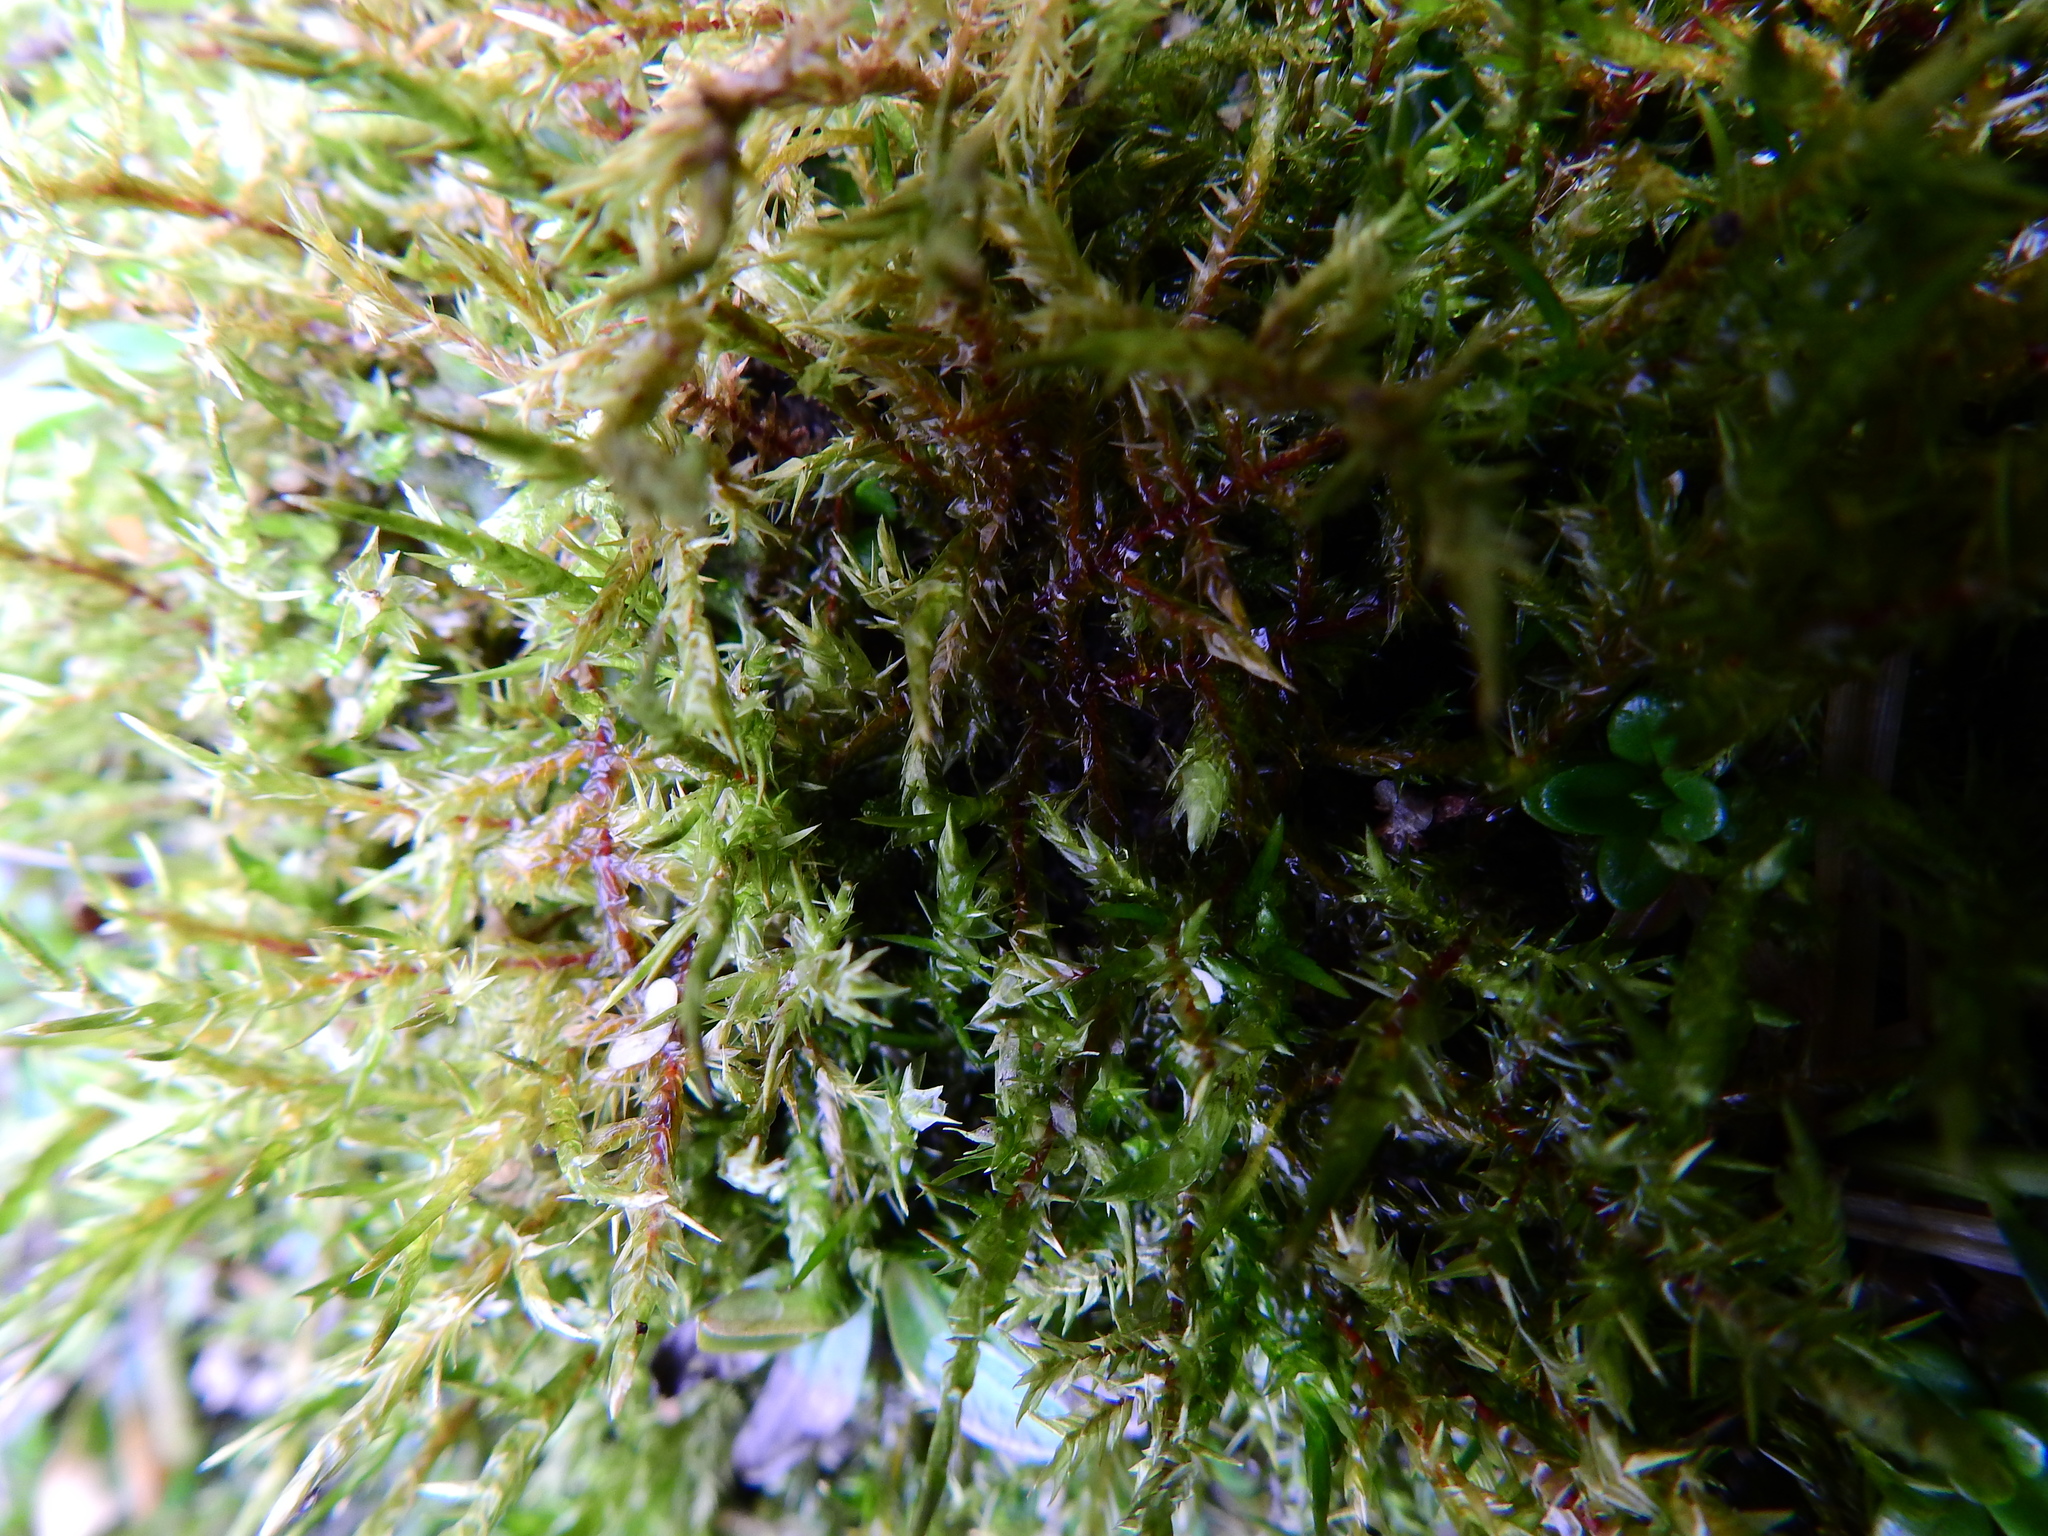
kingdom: Plantae
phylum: Bryophyta
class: Bryopsida
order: Hypnales
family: Pylaisiaceae
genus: Calliergonella
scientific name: Calliergonella cuspidata
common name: Common large wetland moss
